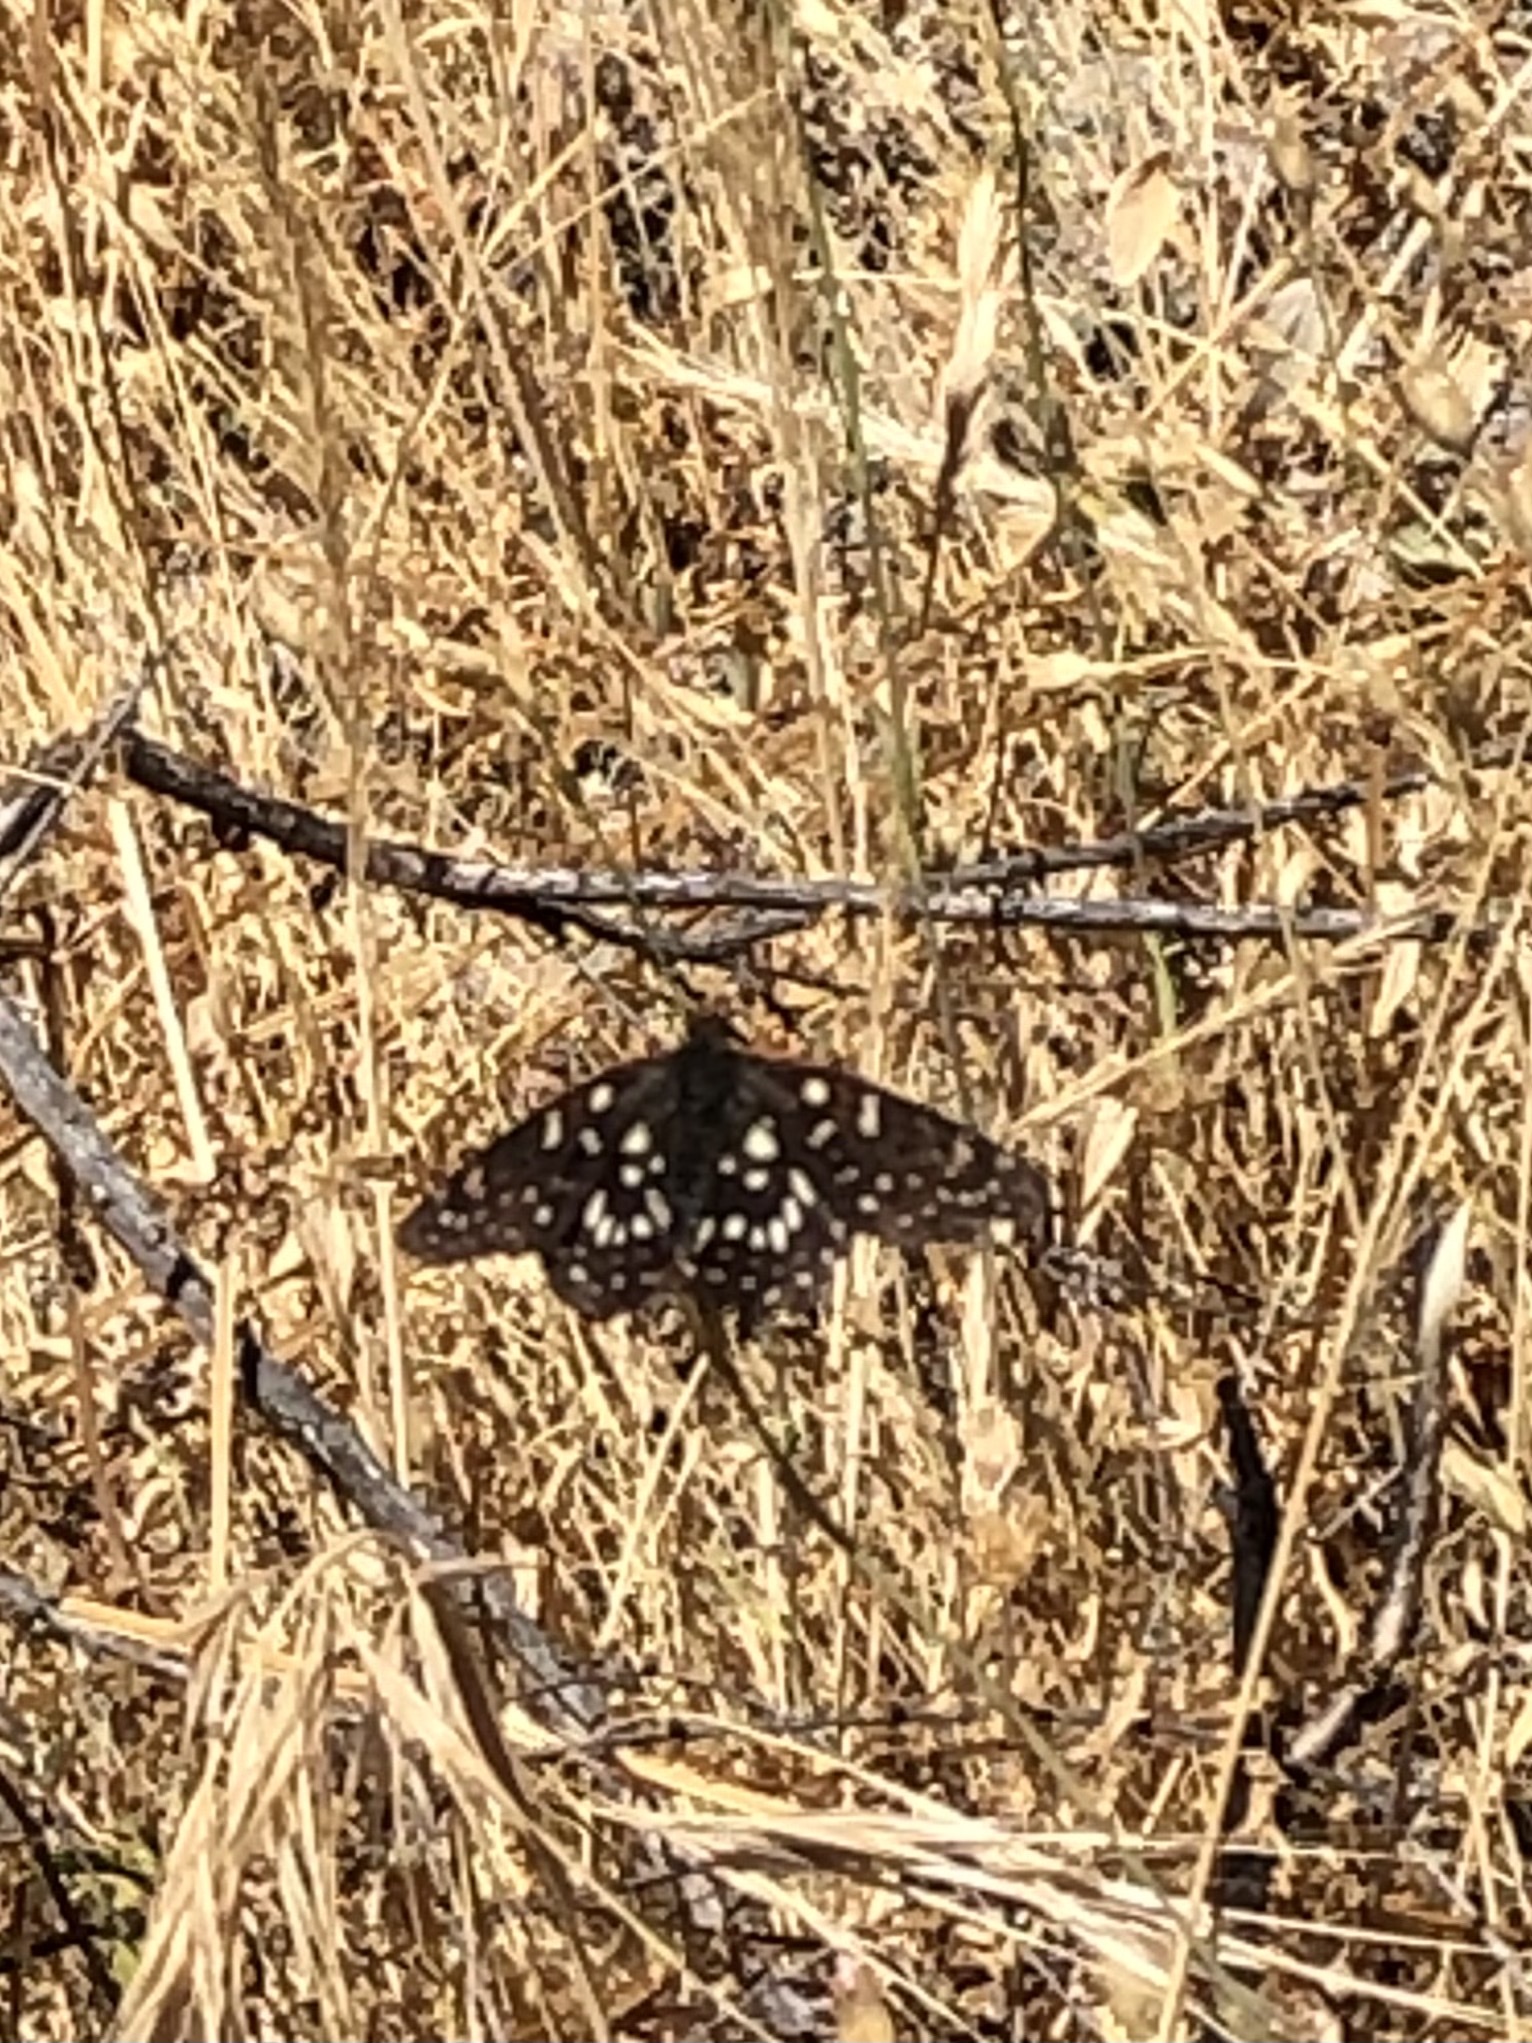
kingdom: Animalia
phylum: Arthropoda
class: Insecta
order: Lepidoptera
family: Nymphalidae
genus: Occidryas
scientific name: Occidryas chalcedona
